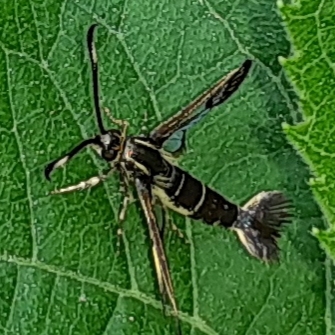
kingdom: Animalia
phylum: Arthropoda
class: Insecta
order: Lepidoptera
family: Sesiidae
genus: Carmenta
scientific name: Carmenta ithacae
